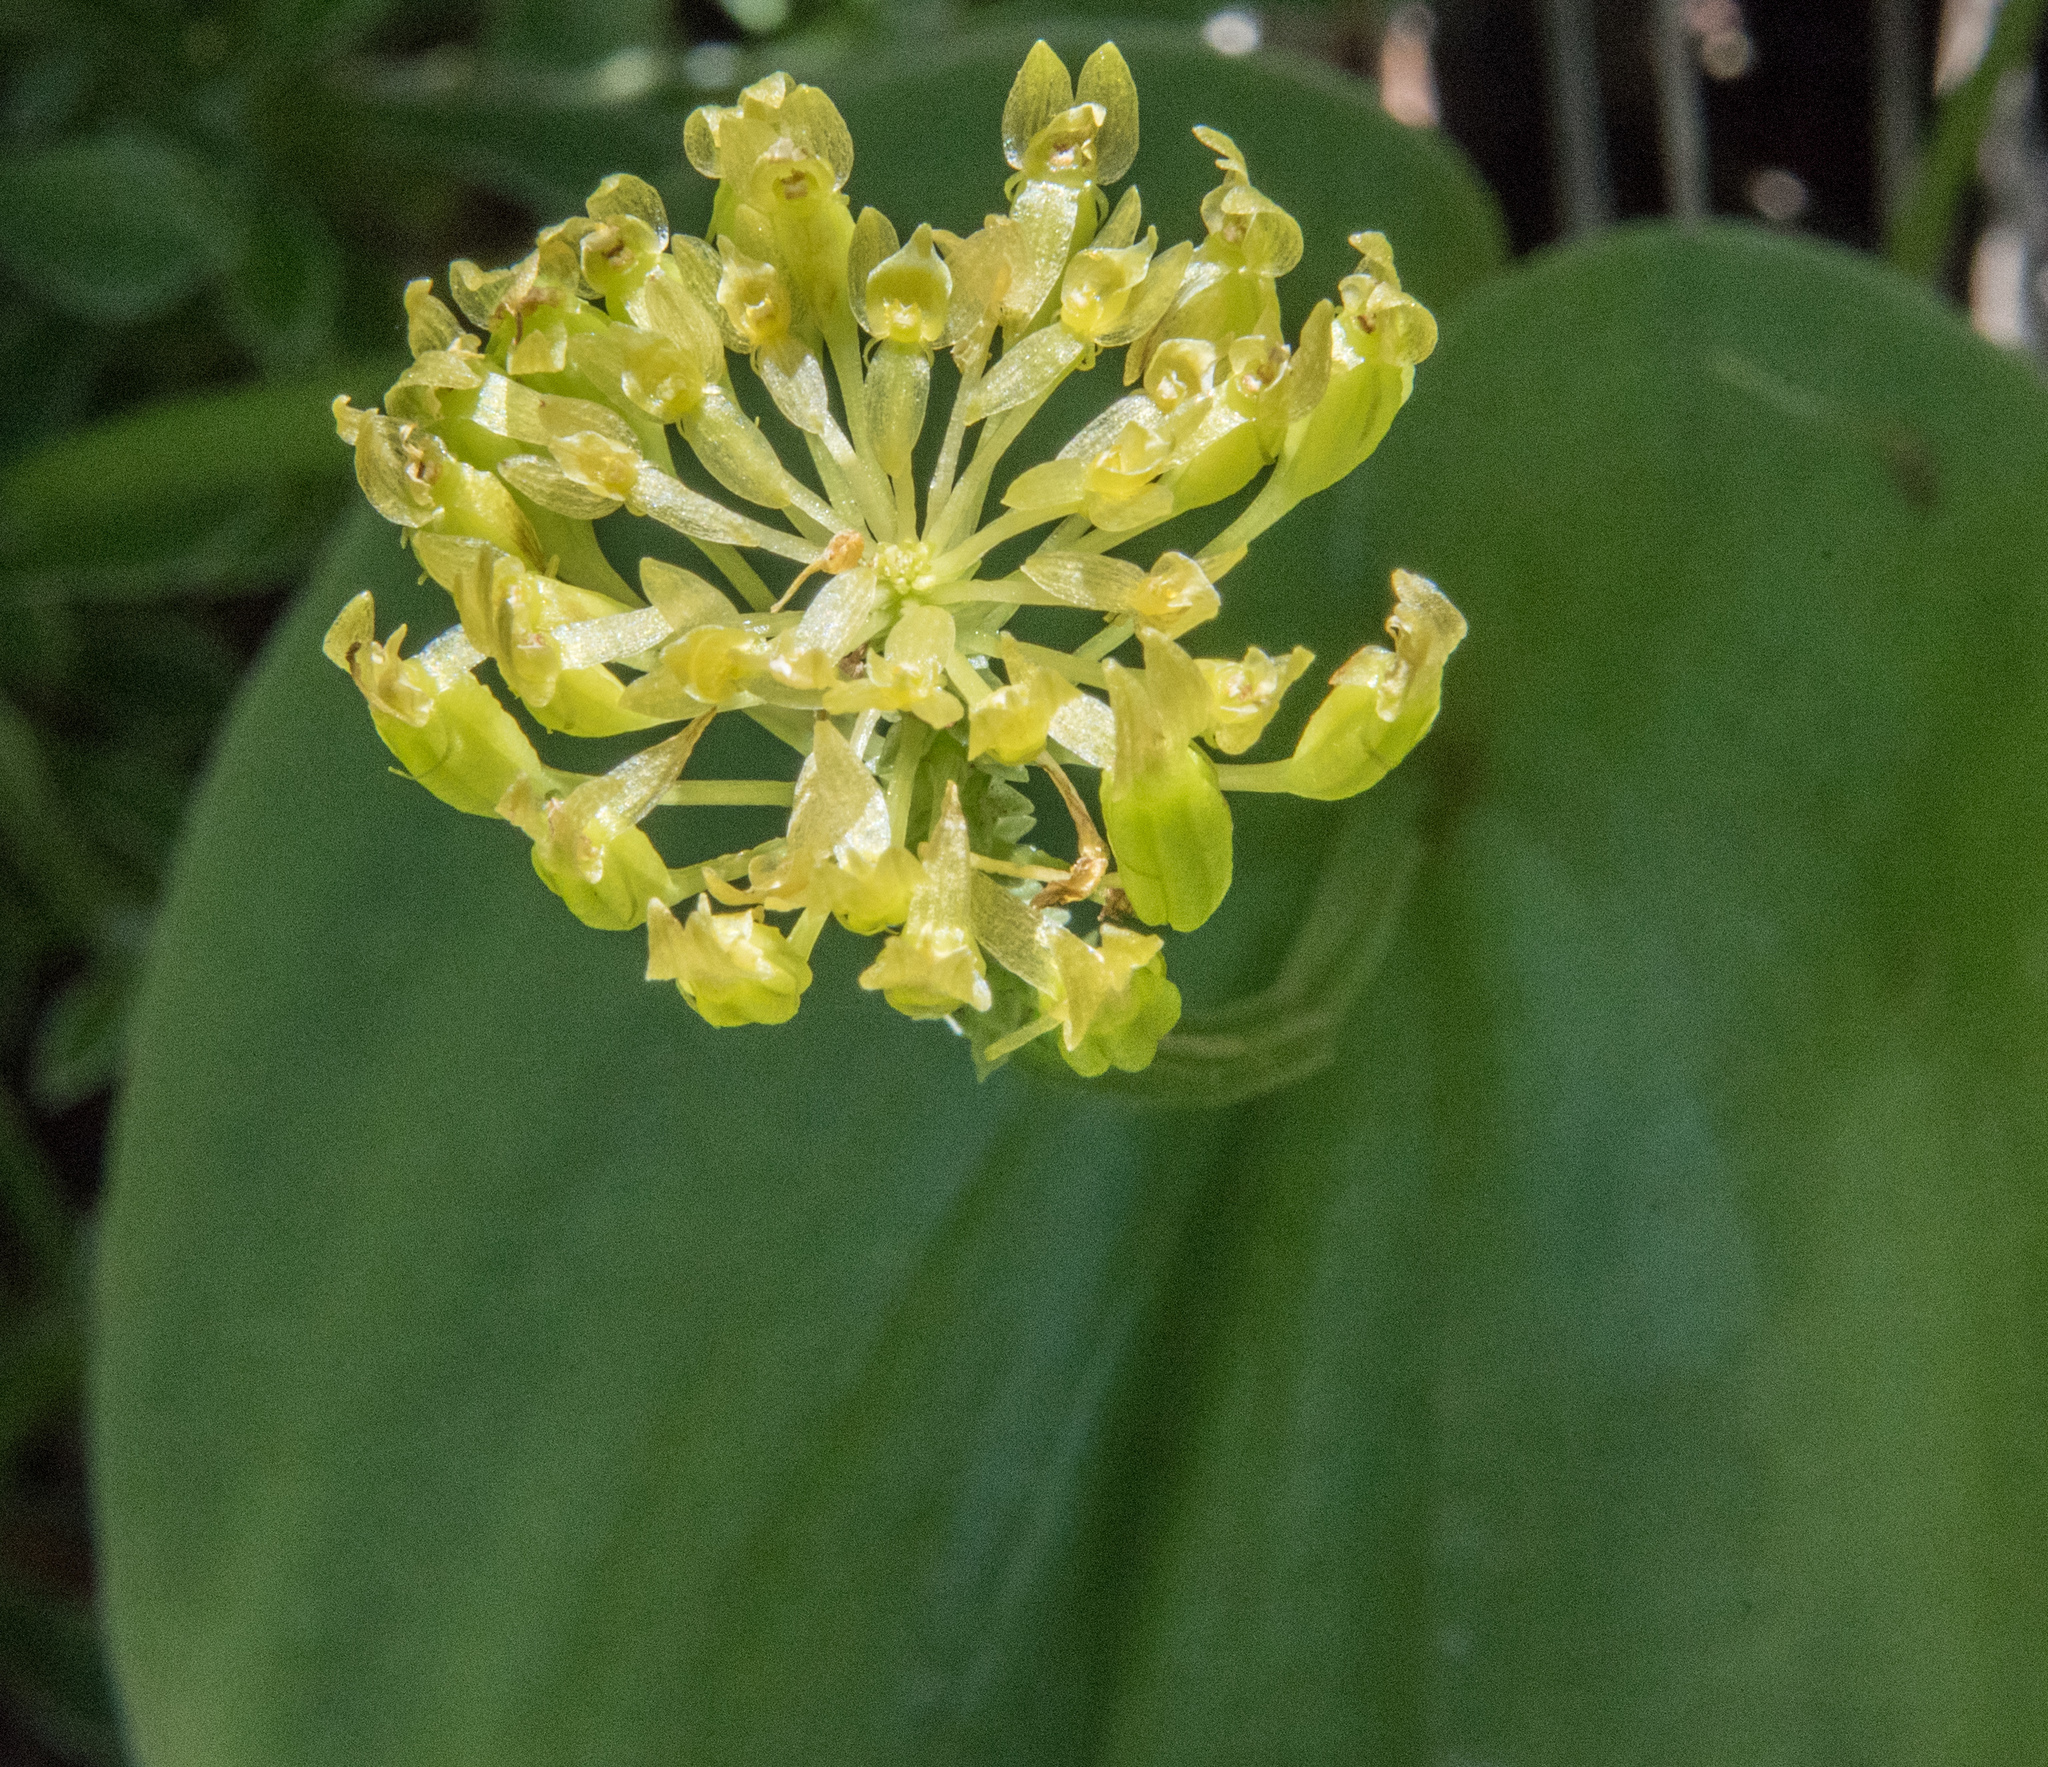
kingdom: Plantae
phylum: Tracheophyta
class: Liliopsida
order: Asparagales
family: Orchidaceae
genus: Malaxis
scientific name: Malaxis brachystachys
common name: Huachuca adder's-mouth
